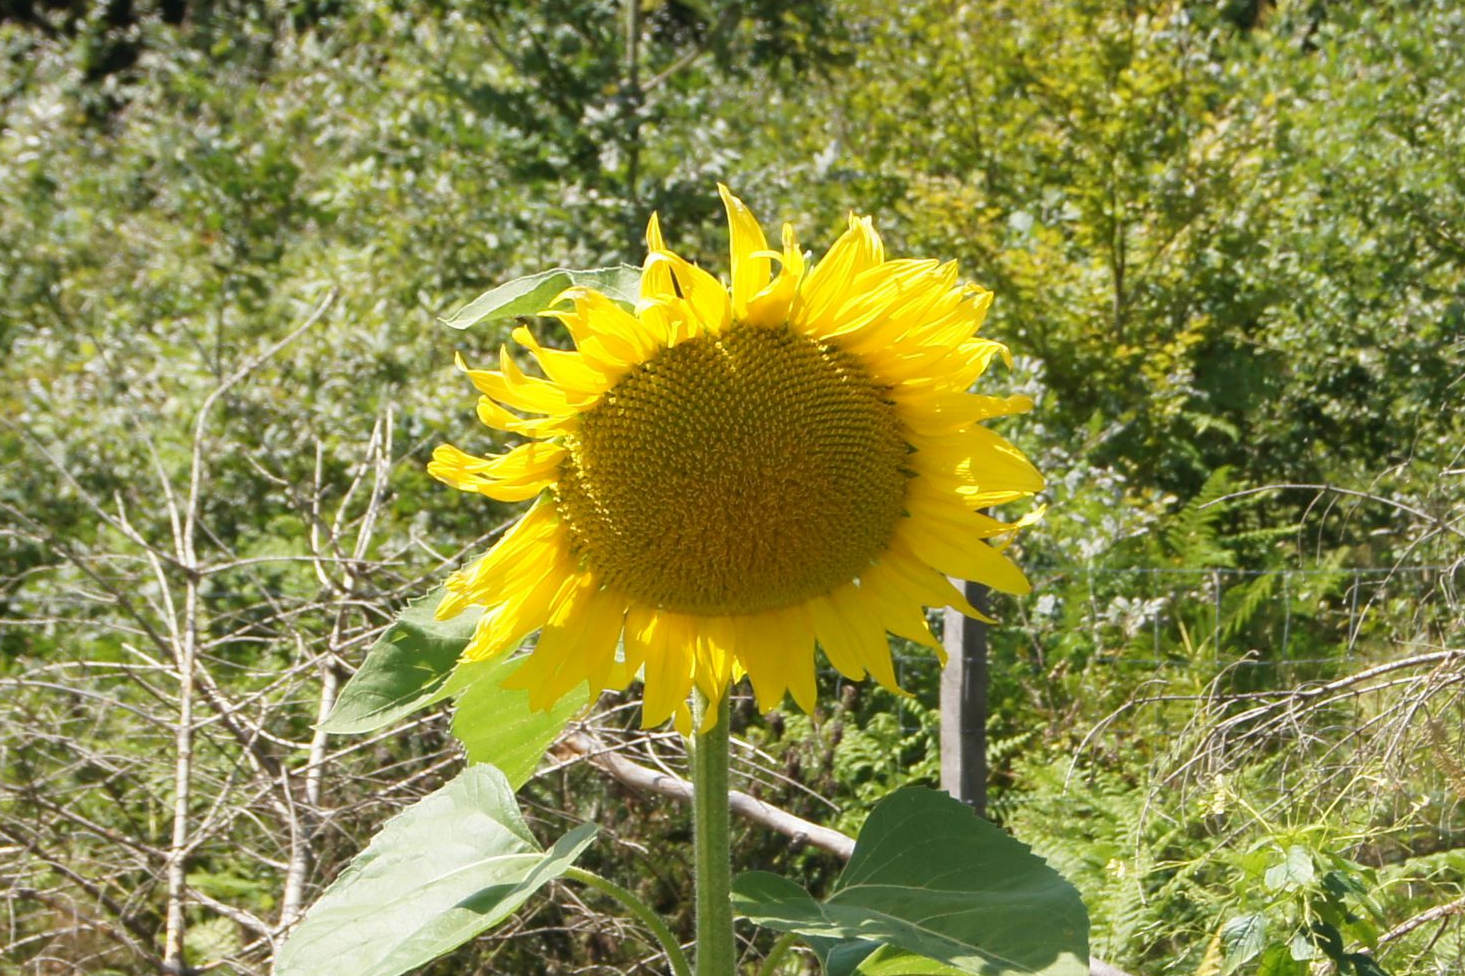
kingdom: Plantae
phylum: Tracheophyta
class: Magnoliopsida
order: Asterales
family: Asteraceae
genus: Helianthus
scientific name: Helianthus annuus
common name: Sunflower
